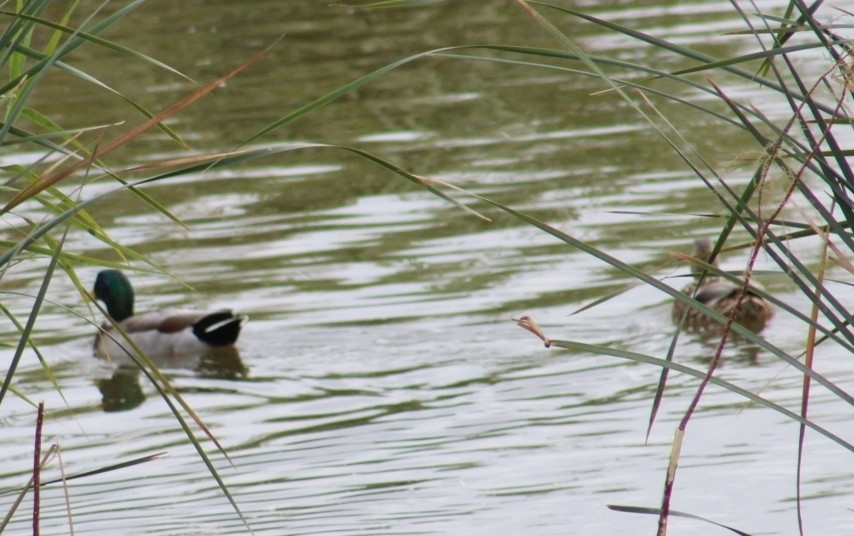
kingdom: Animalia
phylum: Chordata
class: Aves
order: Anseriformes
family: Anatidae
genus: Anas
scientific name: Anas platyrhynchos
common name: Mallard
